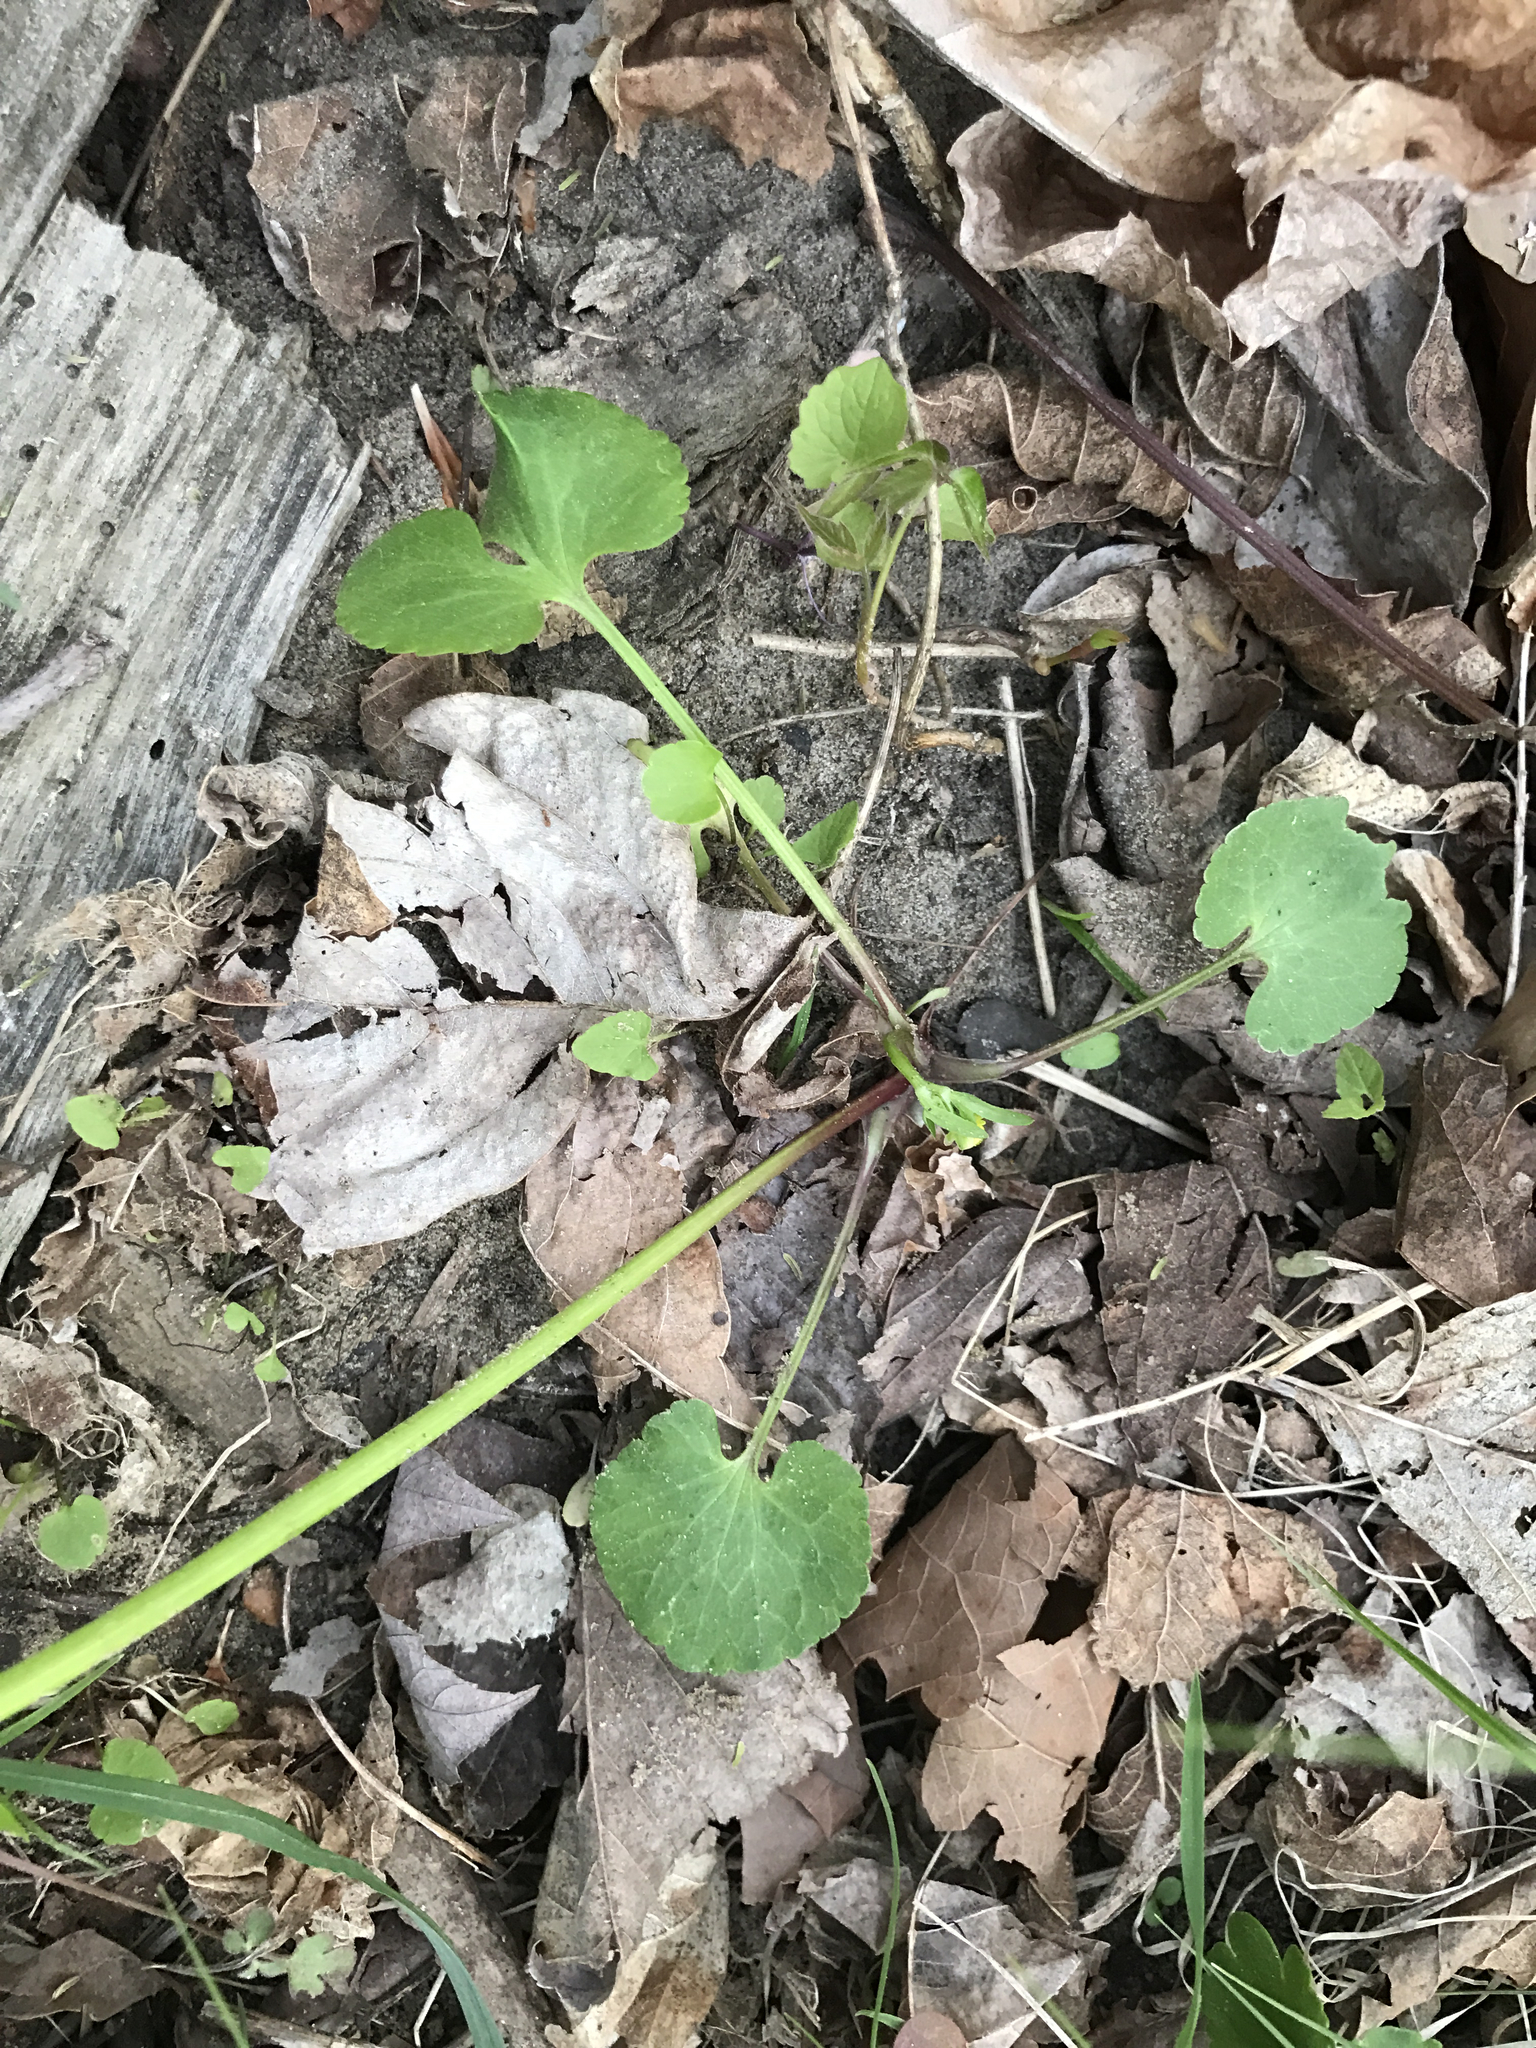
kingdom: Plantae
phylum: Tracheophyta
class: Magnoliopsida
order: Ranunculales
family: Ranunculaceae
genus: Ranunculus
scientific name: Ranunculus abortivus
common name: Early wood buttercup
